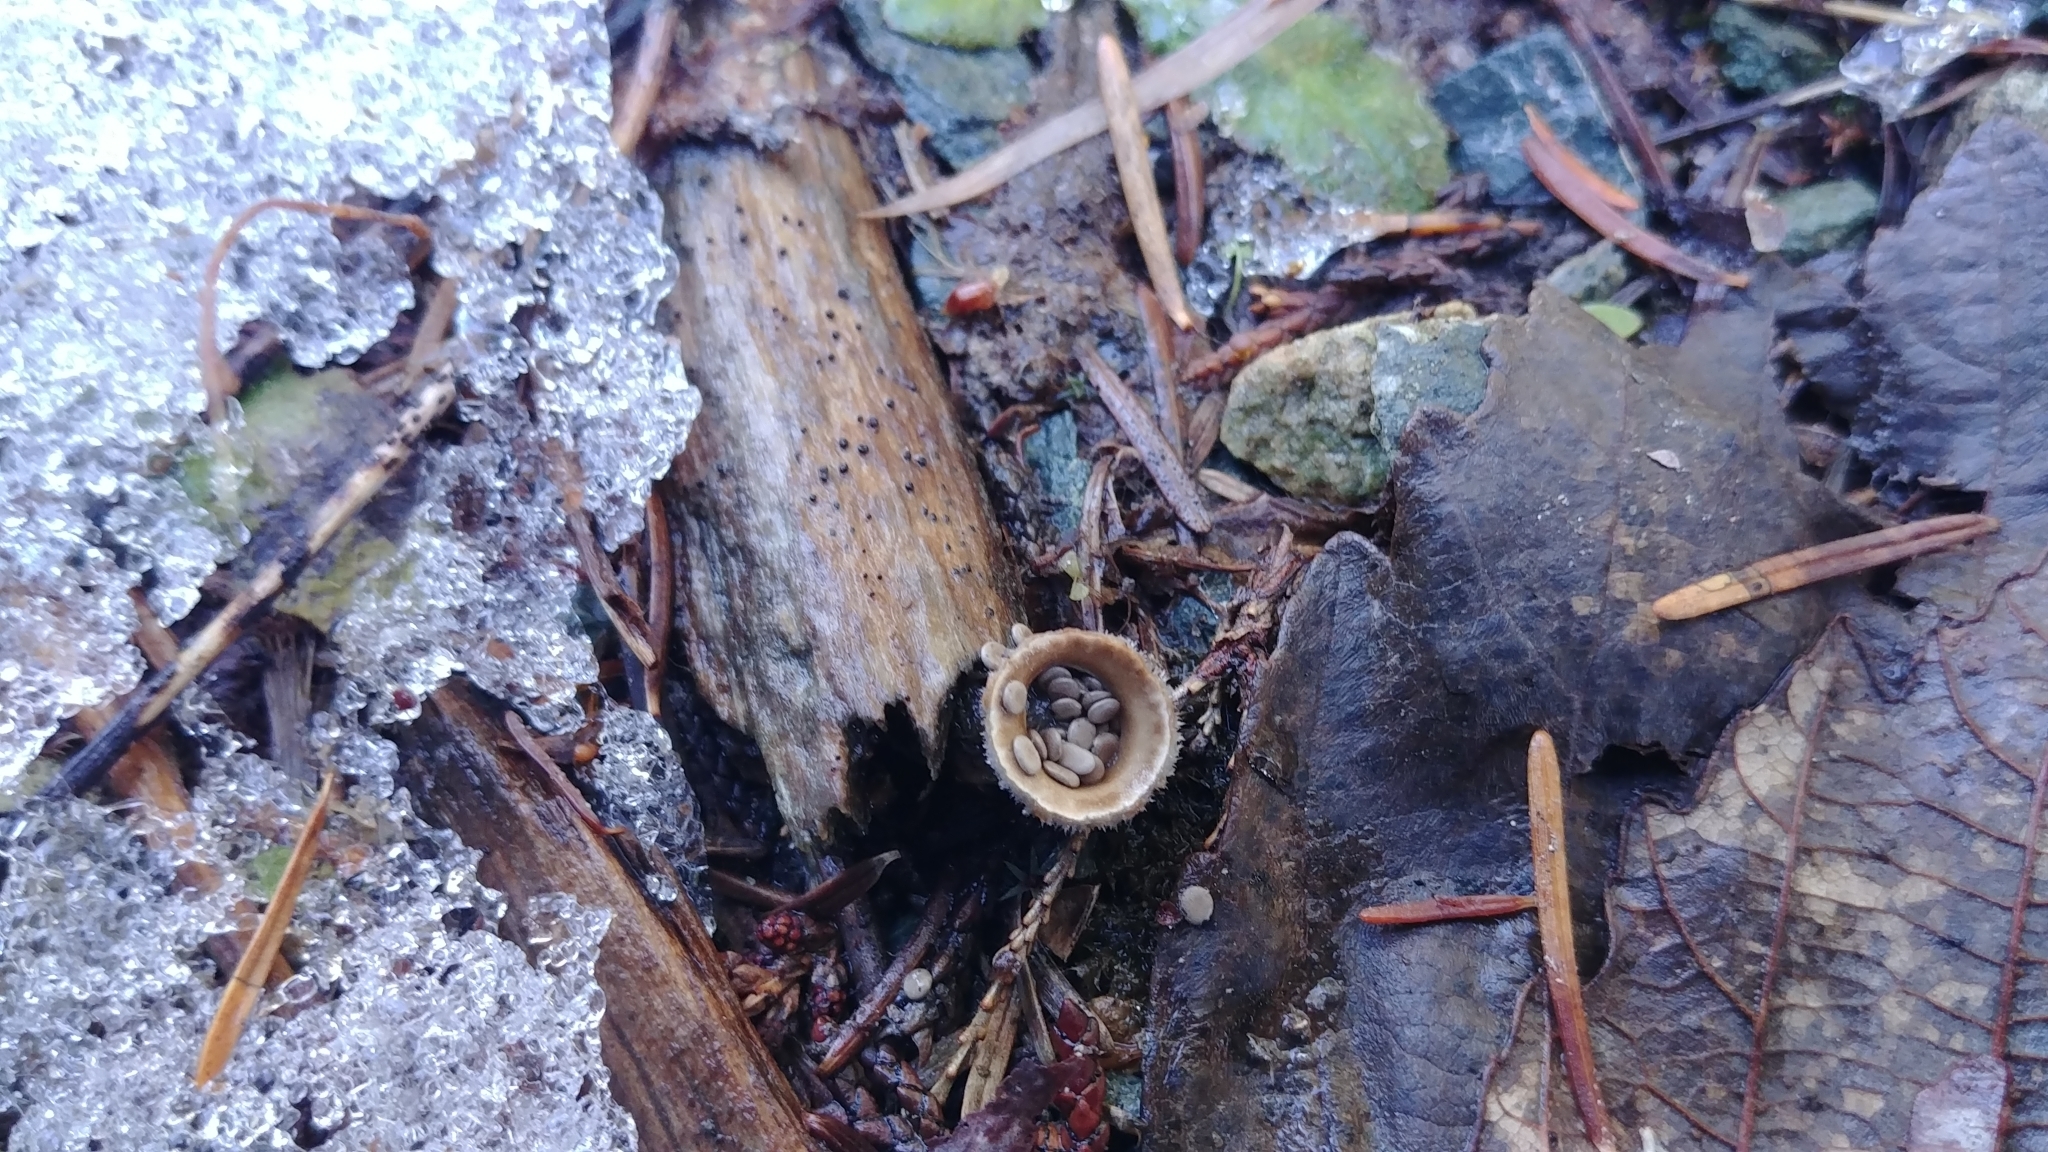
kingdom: Fungi
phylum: Basidiomycota
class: Agaricomycetes
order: Agaricales
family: Agaricaceae
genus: Nidula
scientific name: Nidula candida
